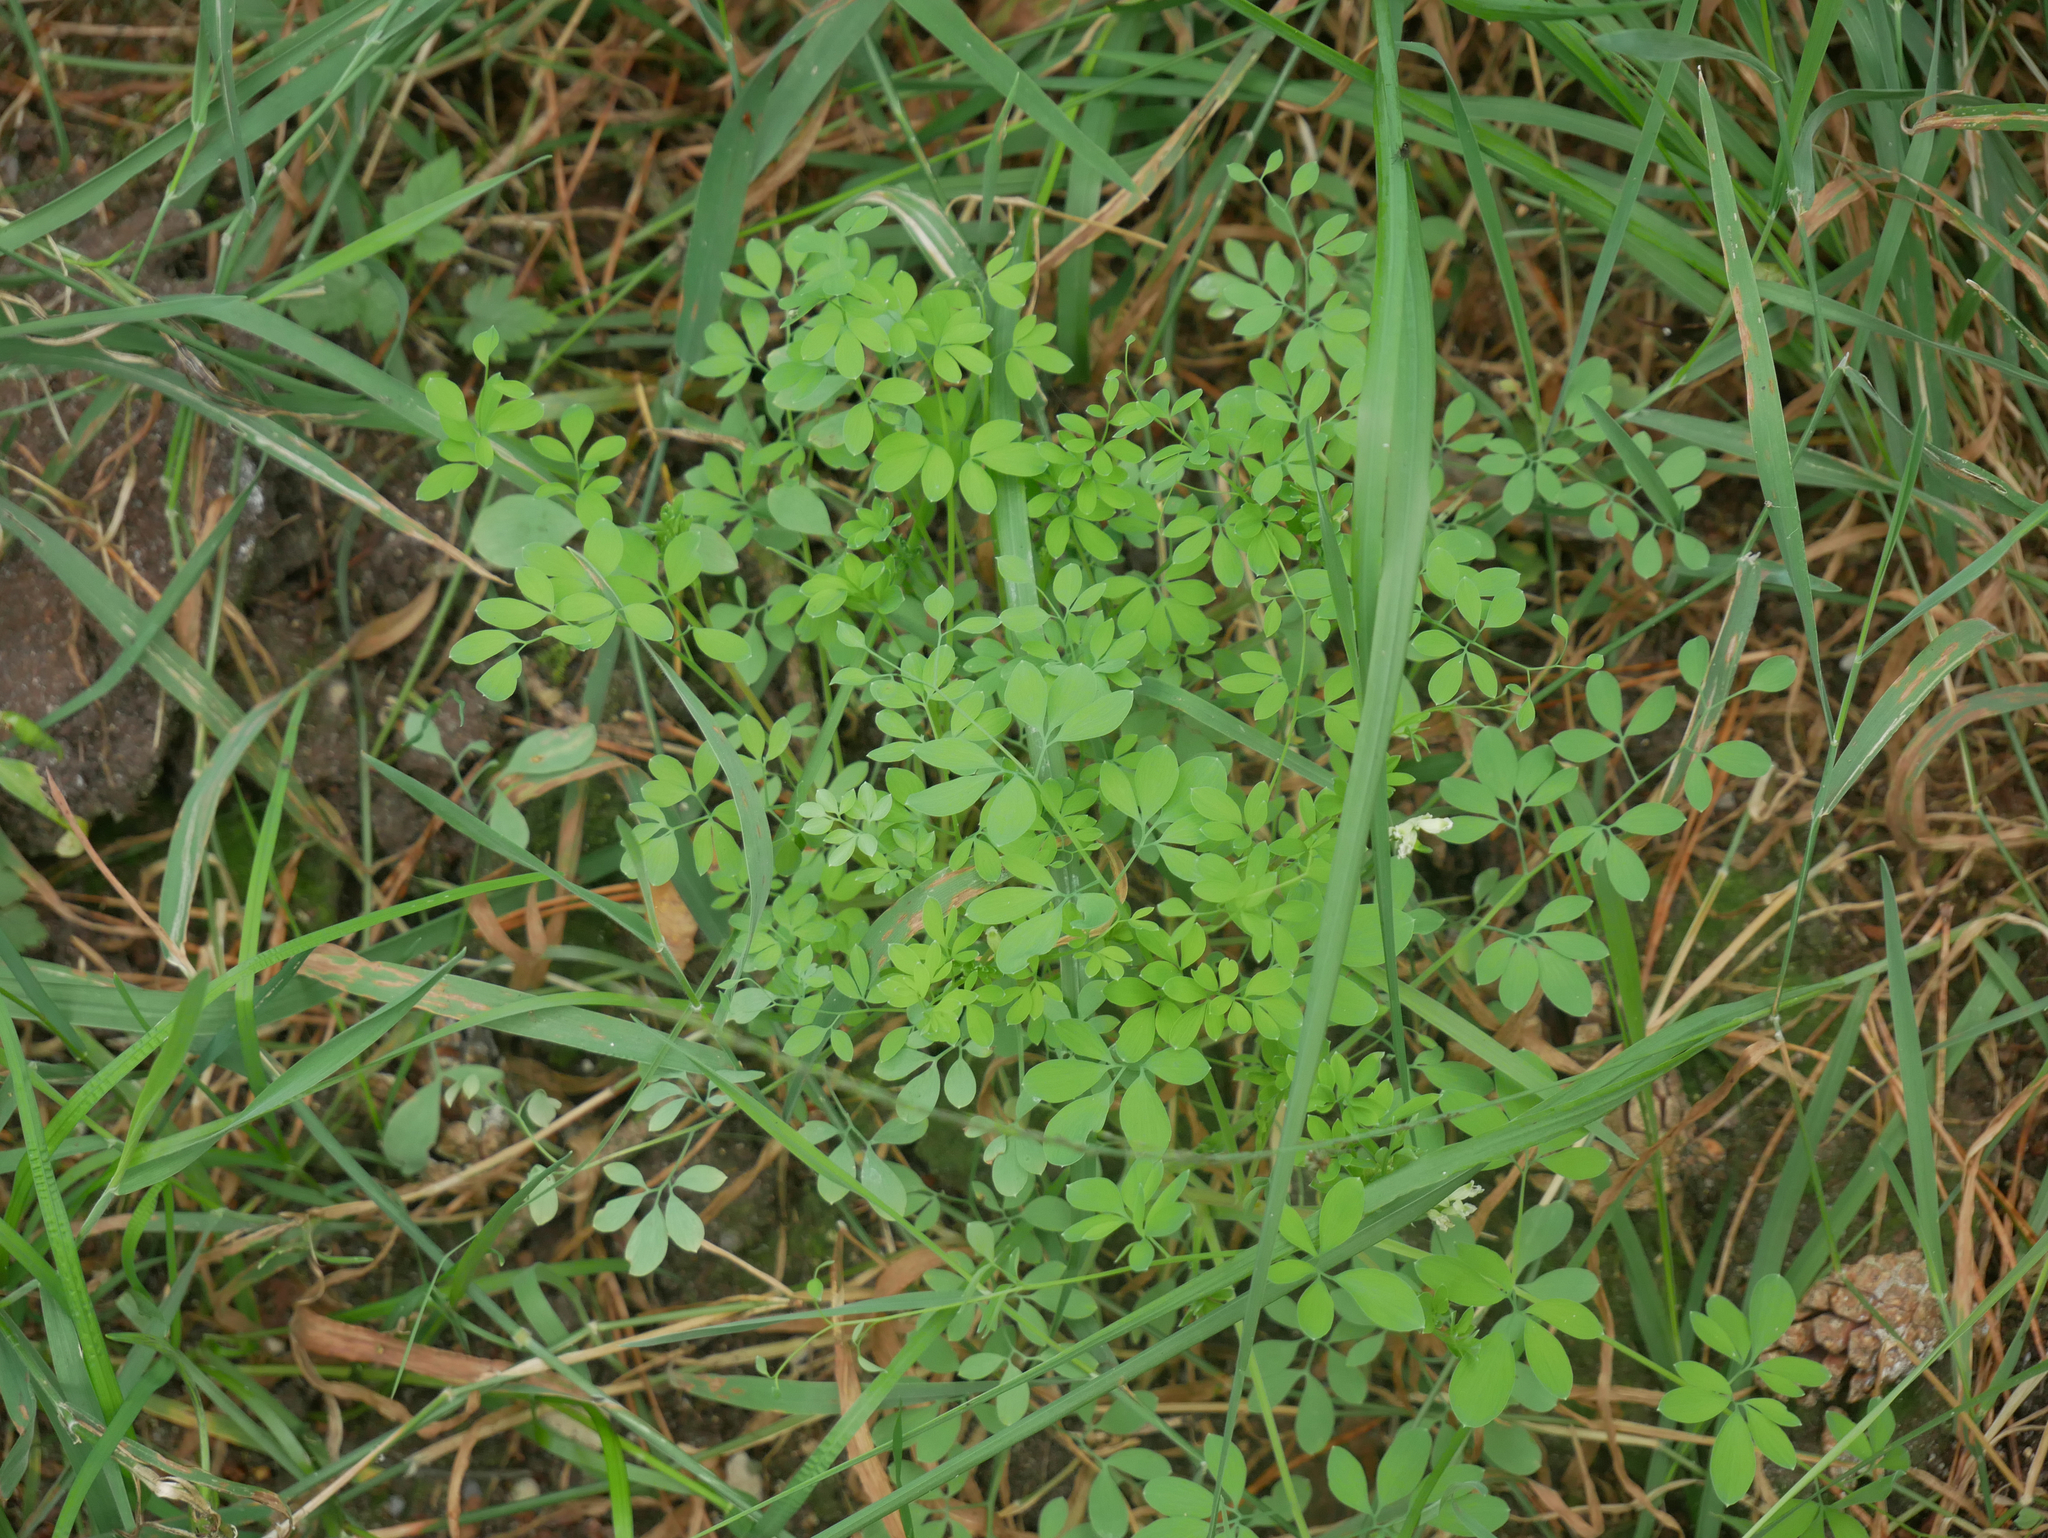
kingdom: Plantae
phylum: Tracheophyta
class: Magnoliopsida
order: Ranunculales
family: Papaveraceae
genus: Ceratocapnos
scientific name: Ceratocapnos claviculata
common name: Climbing corydalis
